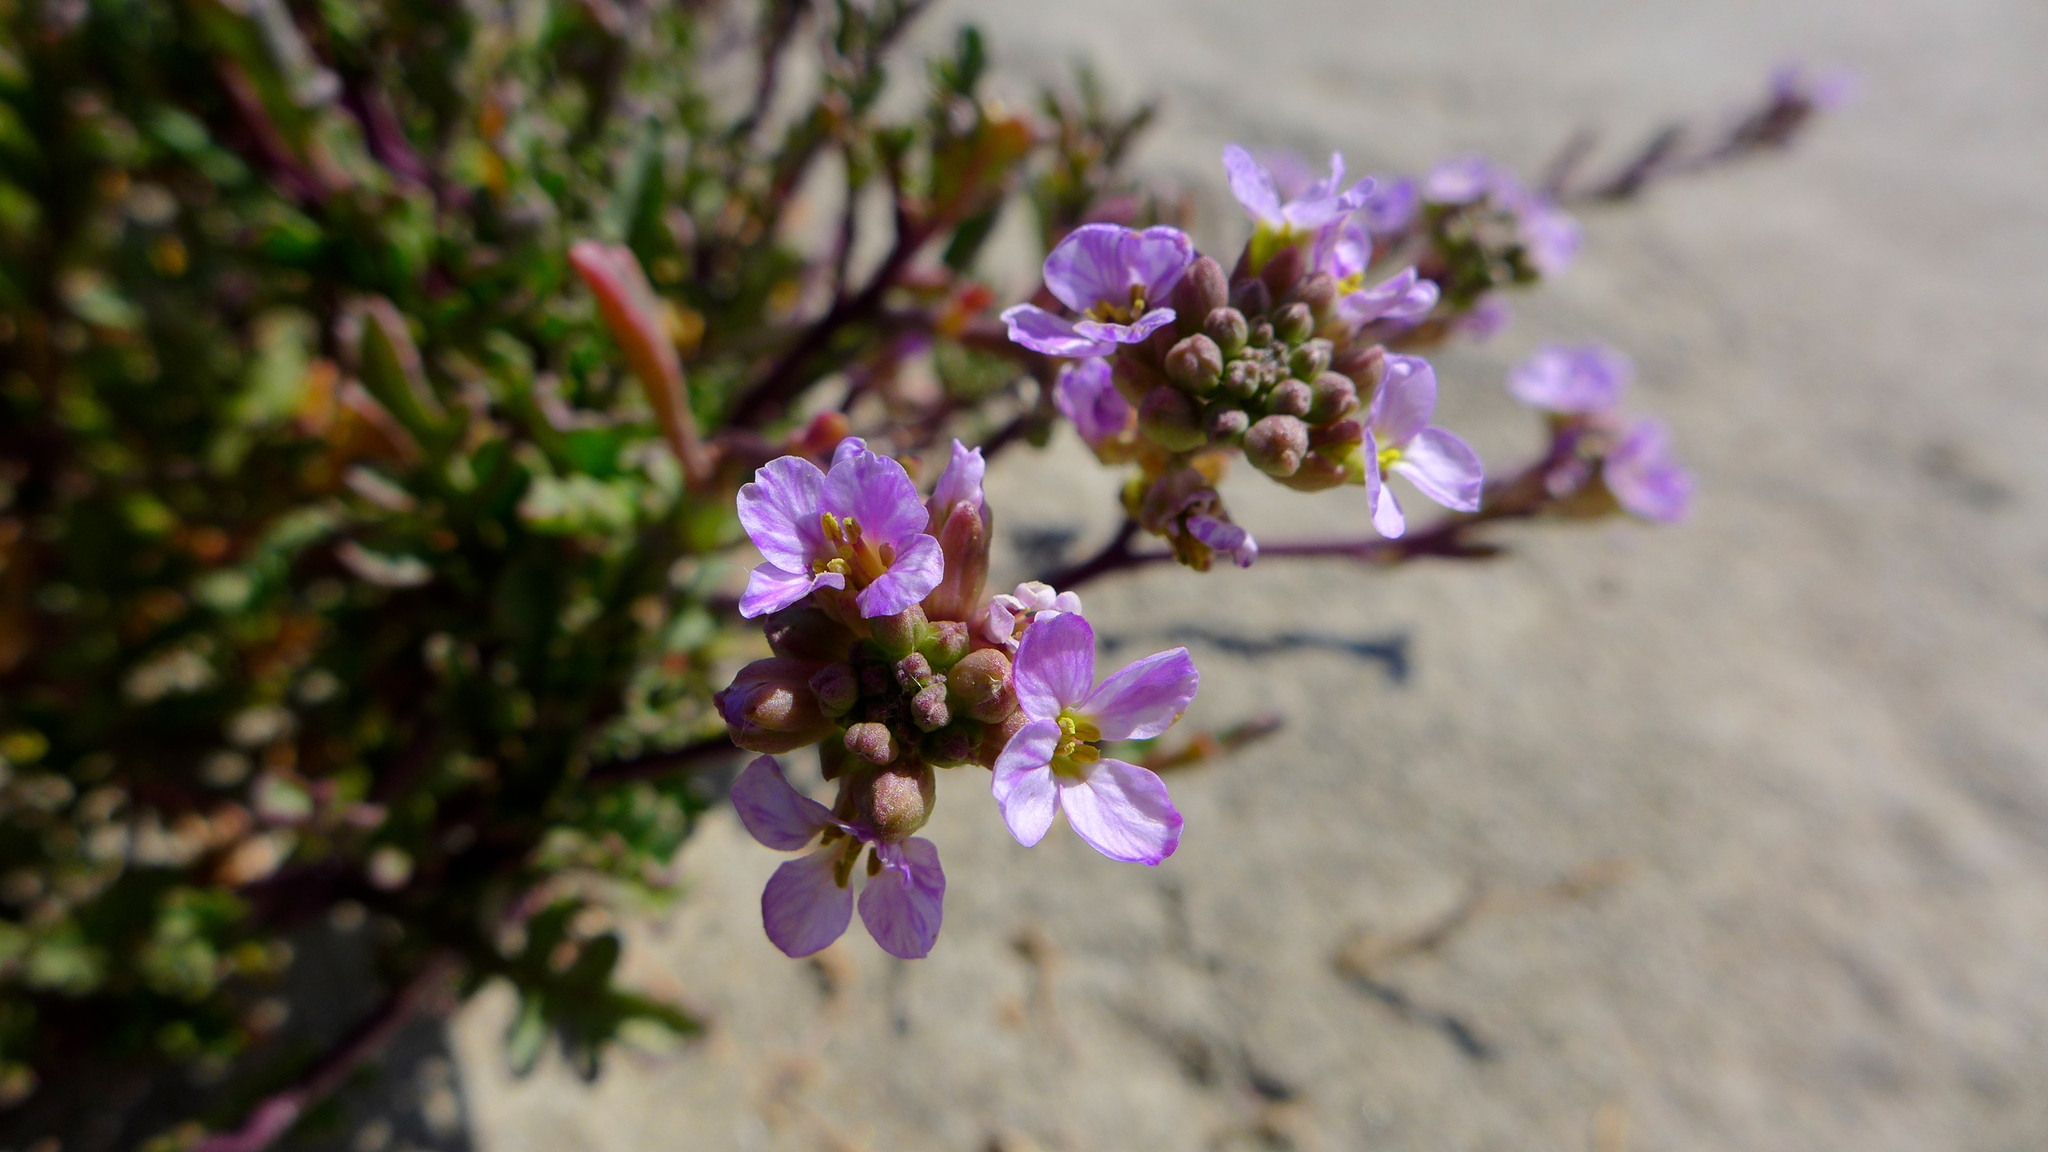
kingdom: Plantae
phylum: Tracheophyta
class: Magnoliopsida
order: Brassicales
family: Brassicaceae
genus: Cakile
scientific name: Cakile maritima
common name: Sea rocket
